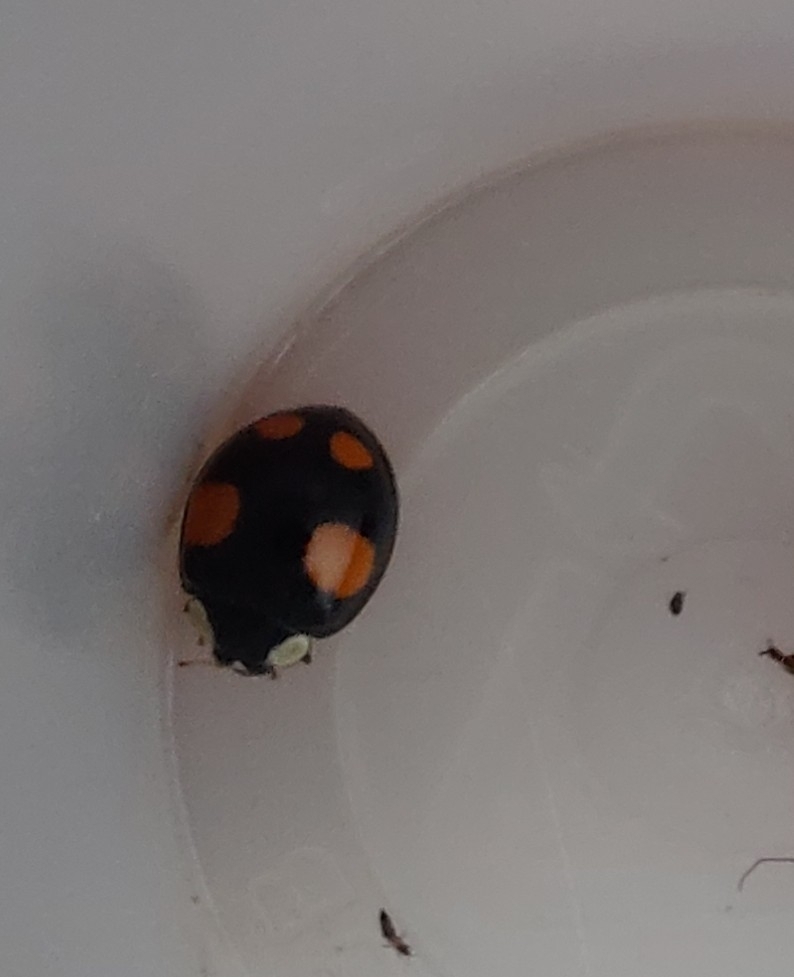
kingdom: Animalia
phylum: Arthropoda
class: Insecta
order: Coleoptera
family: Coccinellidae
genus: Harmonia
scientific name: Harmonia axyridis
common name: Harlequin ladybird
